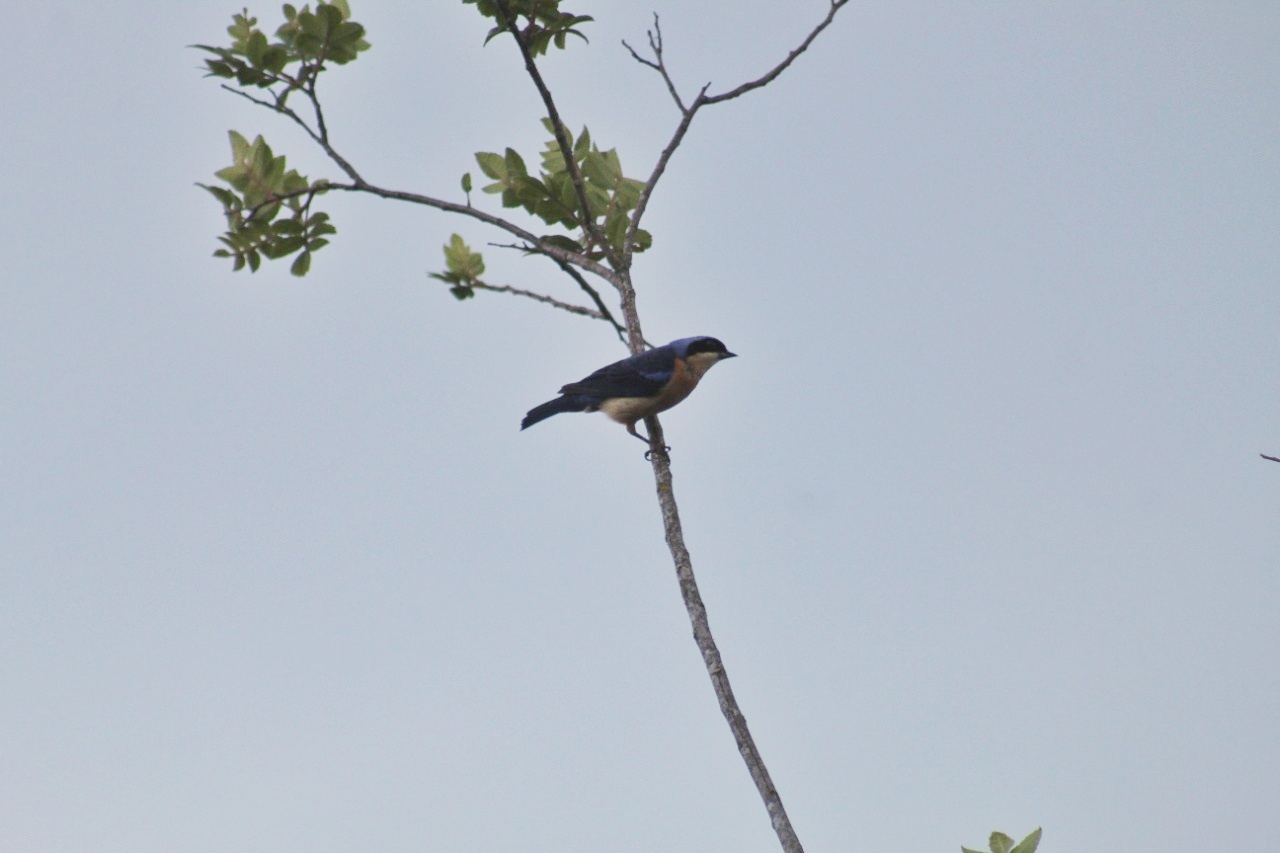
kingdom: Animalia
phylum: Chordata
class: Aves
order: Passeriformes
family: Thraupidae
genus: Pipraeidea
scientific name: Pipraeidea melanonota
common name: Fawn-breasted tanager
